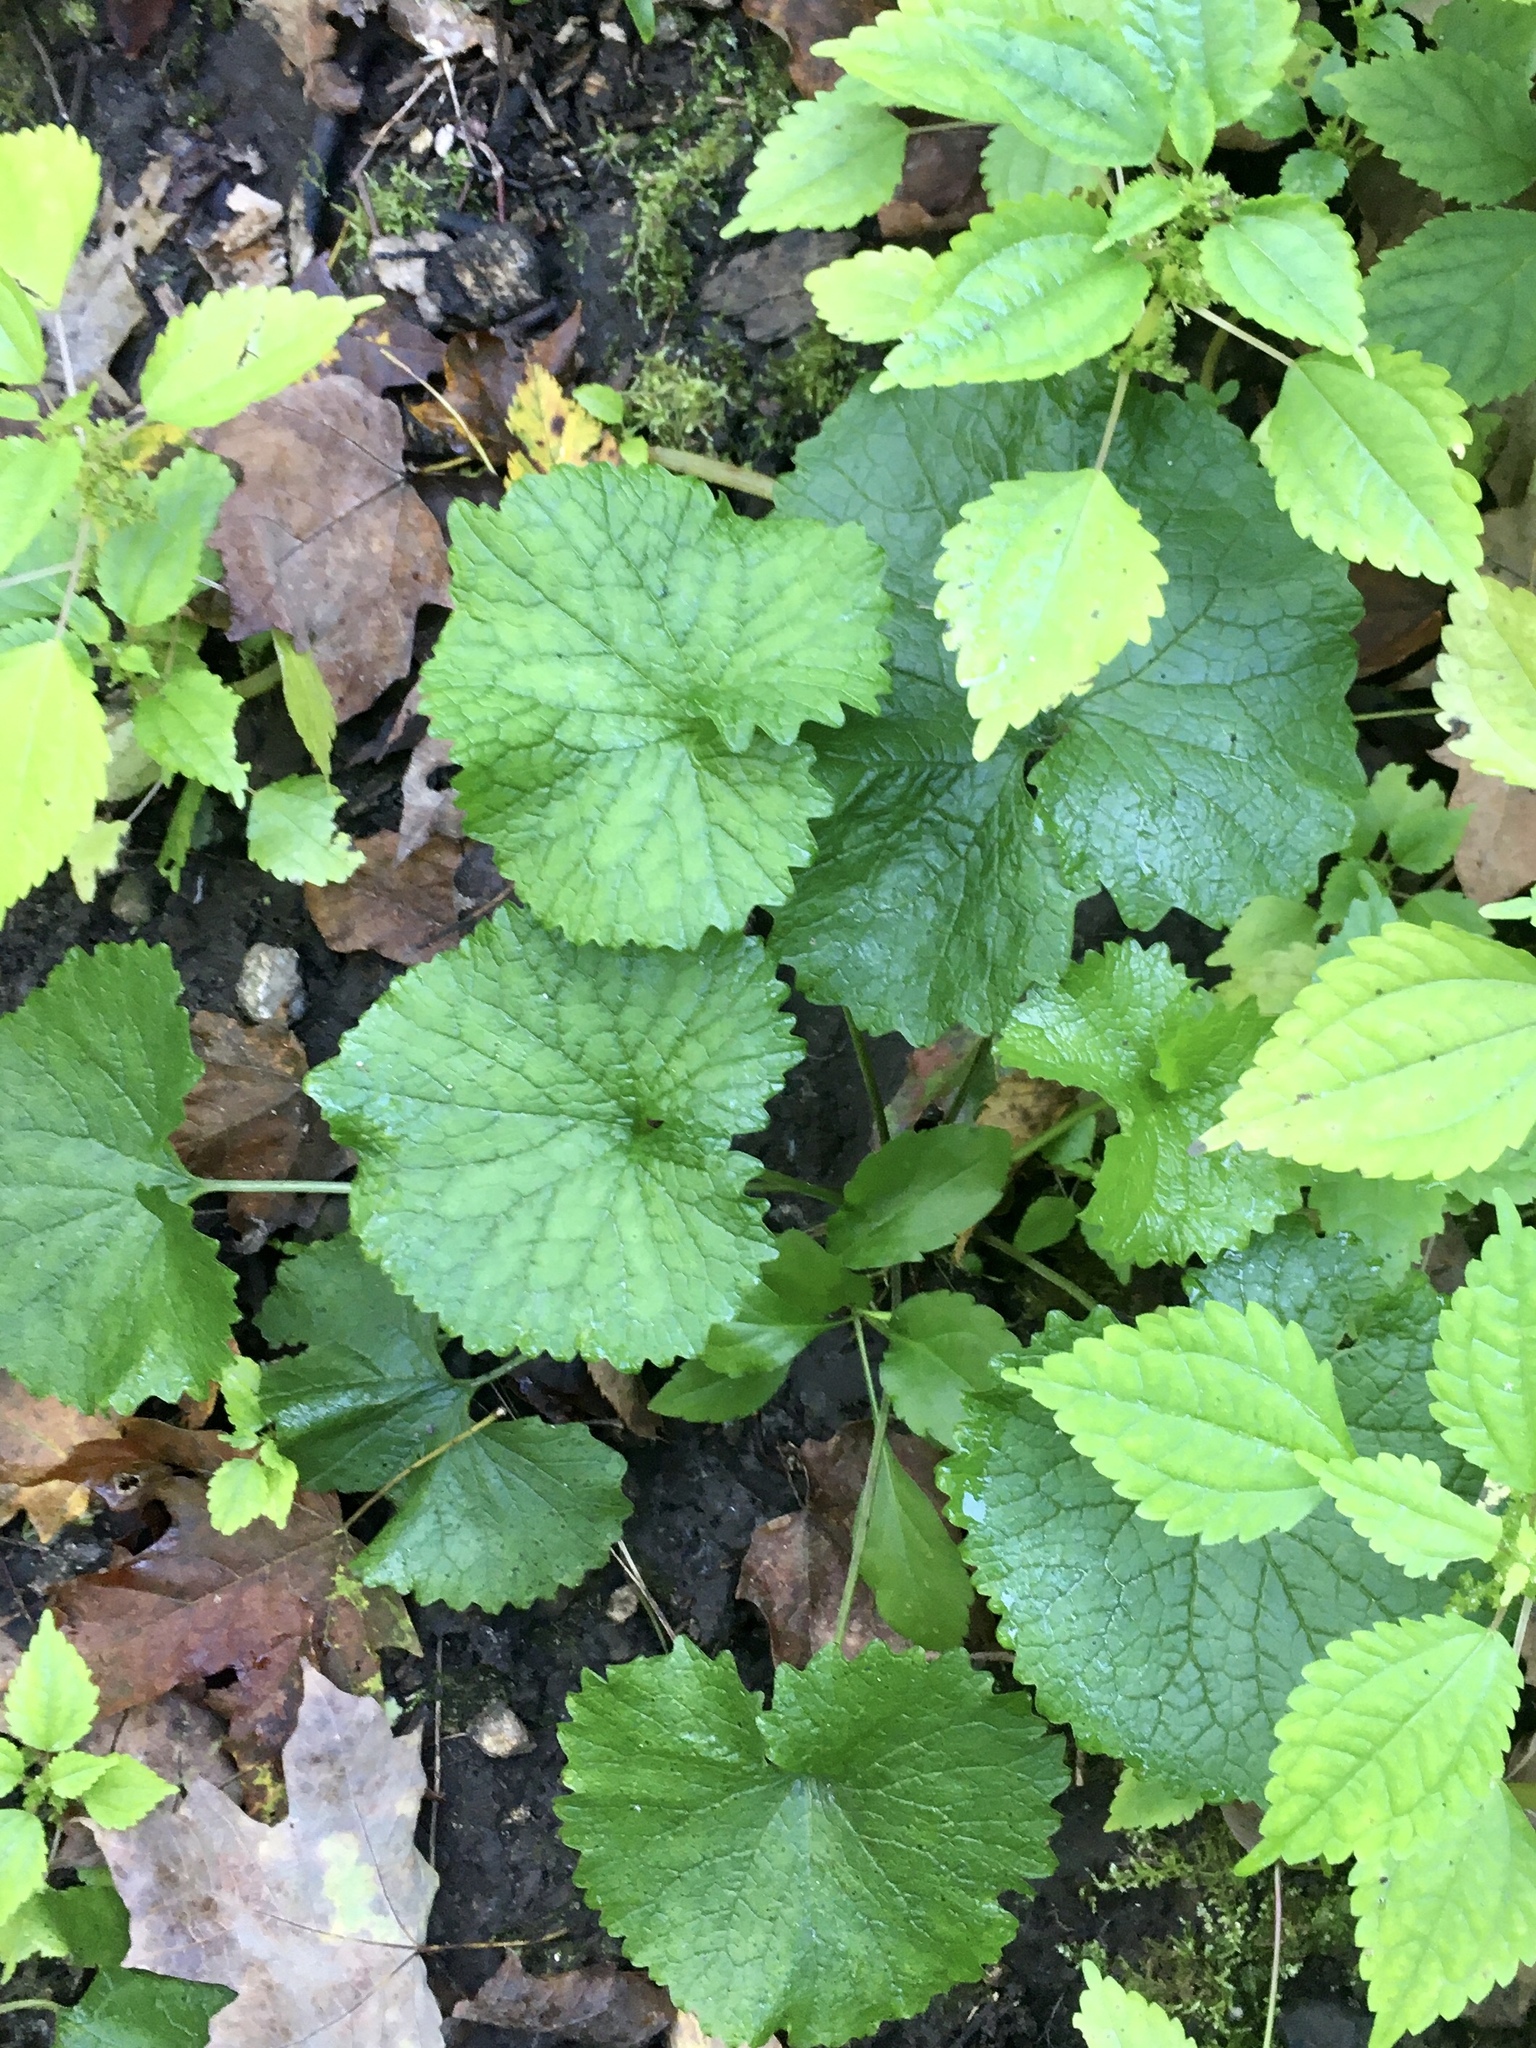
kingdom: Plantae
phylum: Tracheophyta
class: Magnoliopsida
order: Brassicales
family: Brassicaceae
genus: Alliaria
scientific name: Alliaria petiolata
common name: Garlic mustard
